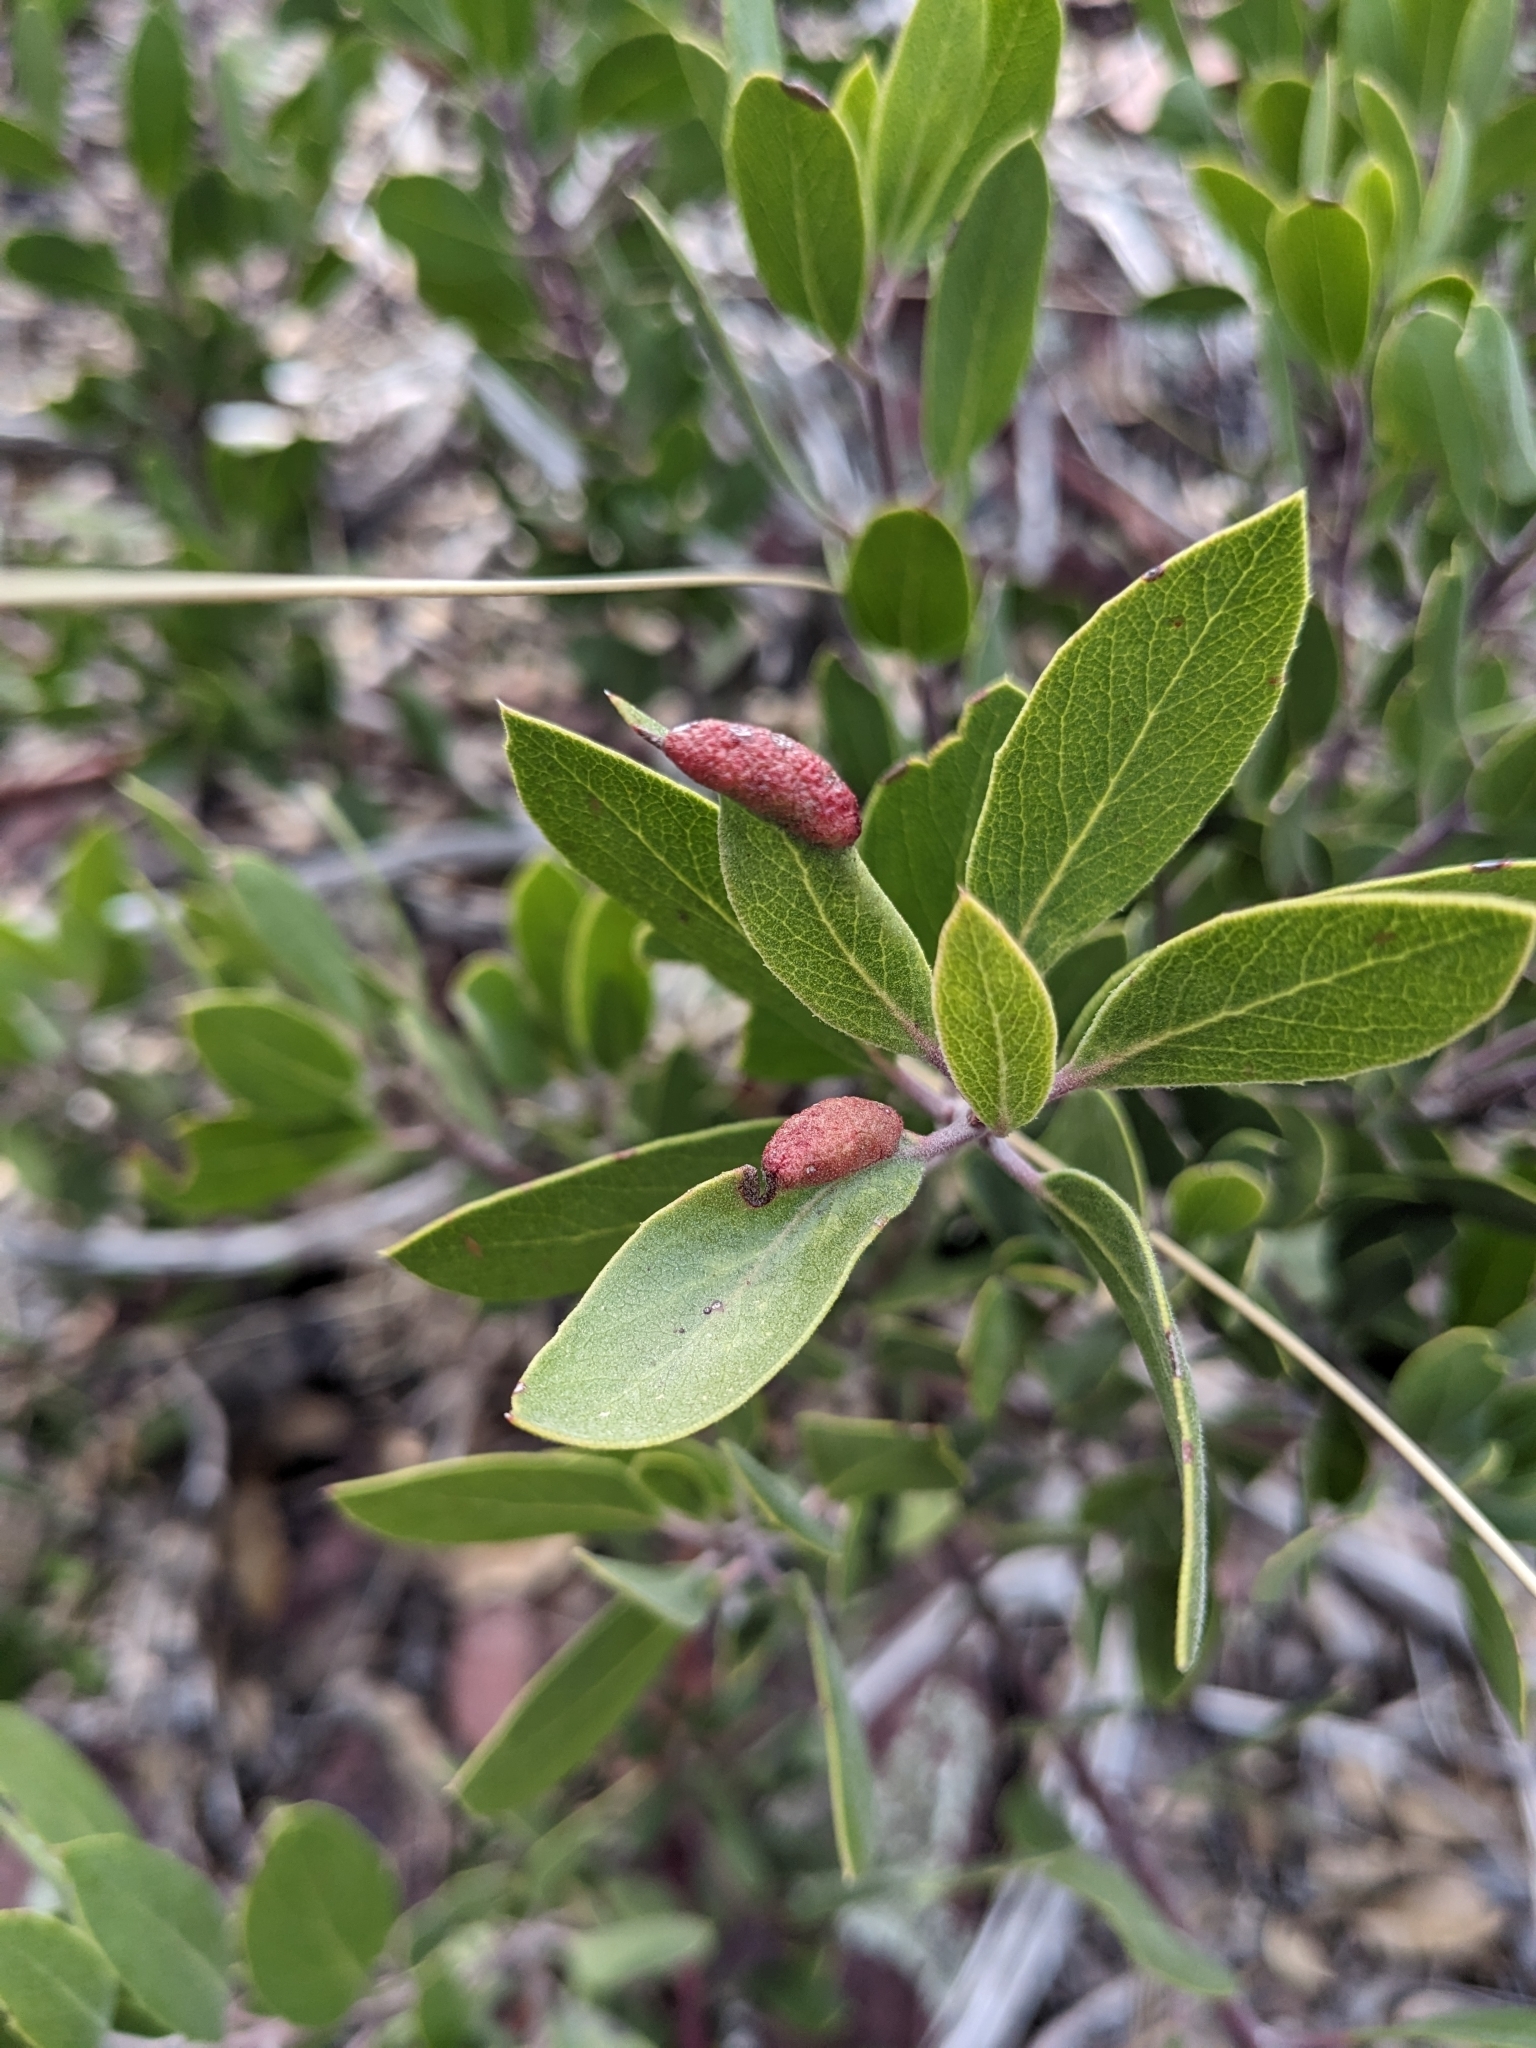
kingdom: Animalia
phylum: Arthropoda
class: Insecta
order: Hemiptera
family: Aphididae
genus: Tamalia
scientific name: Tamalia coweni
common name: Manzanita leafgall aphid
